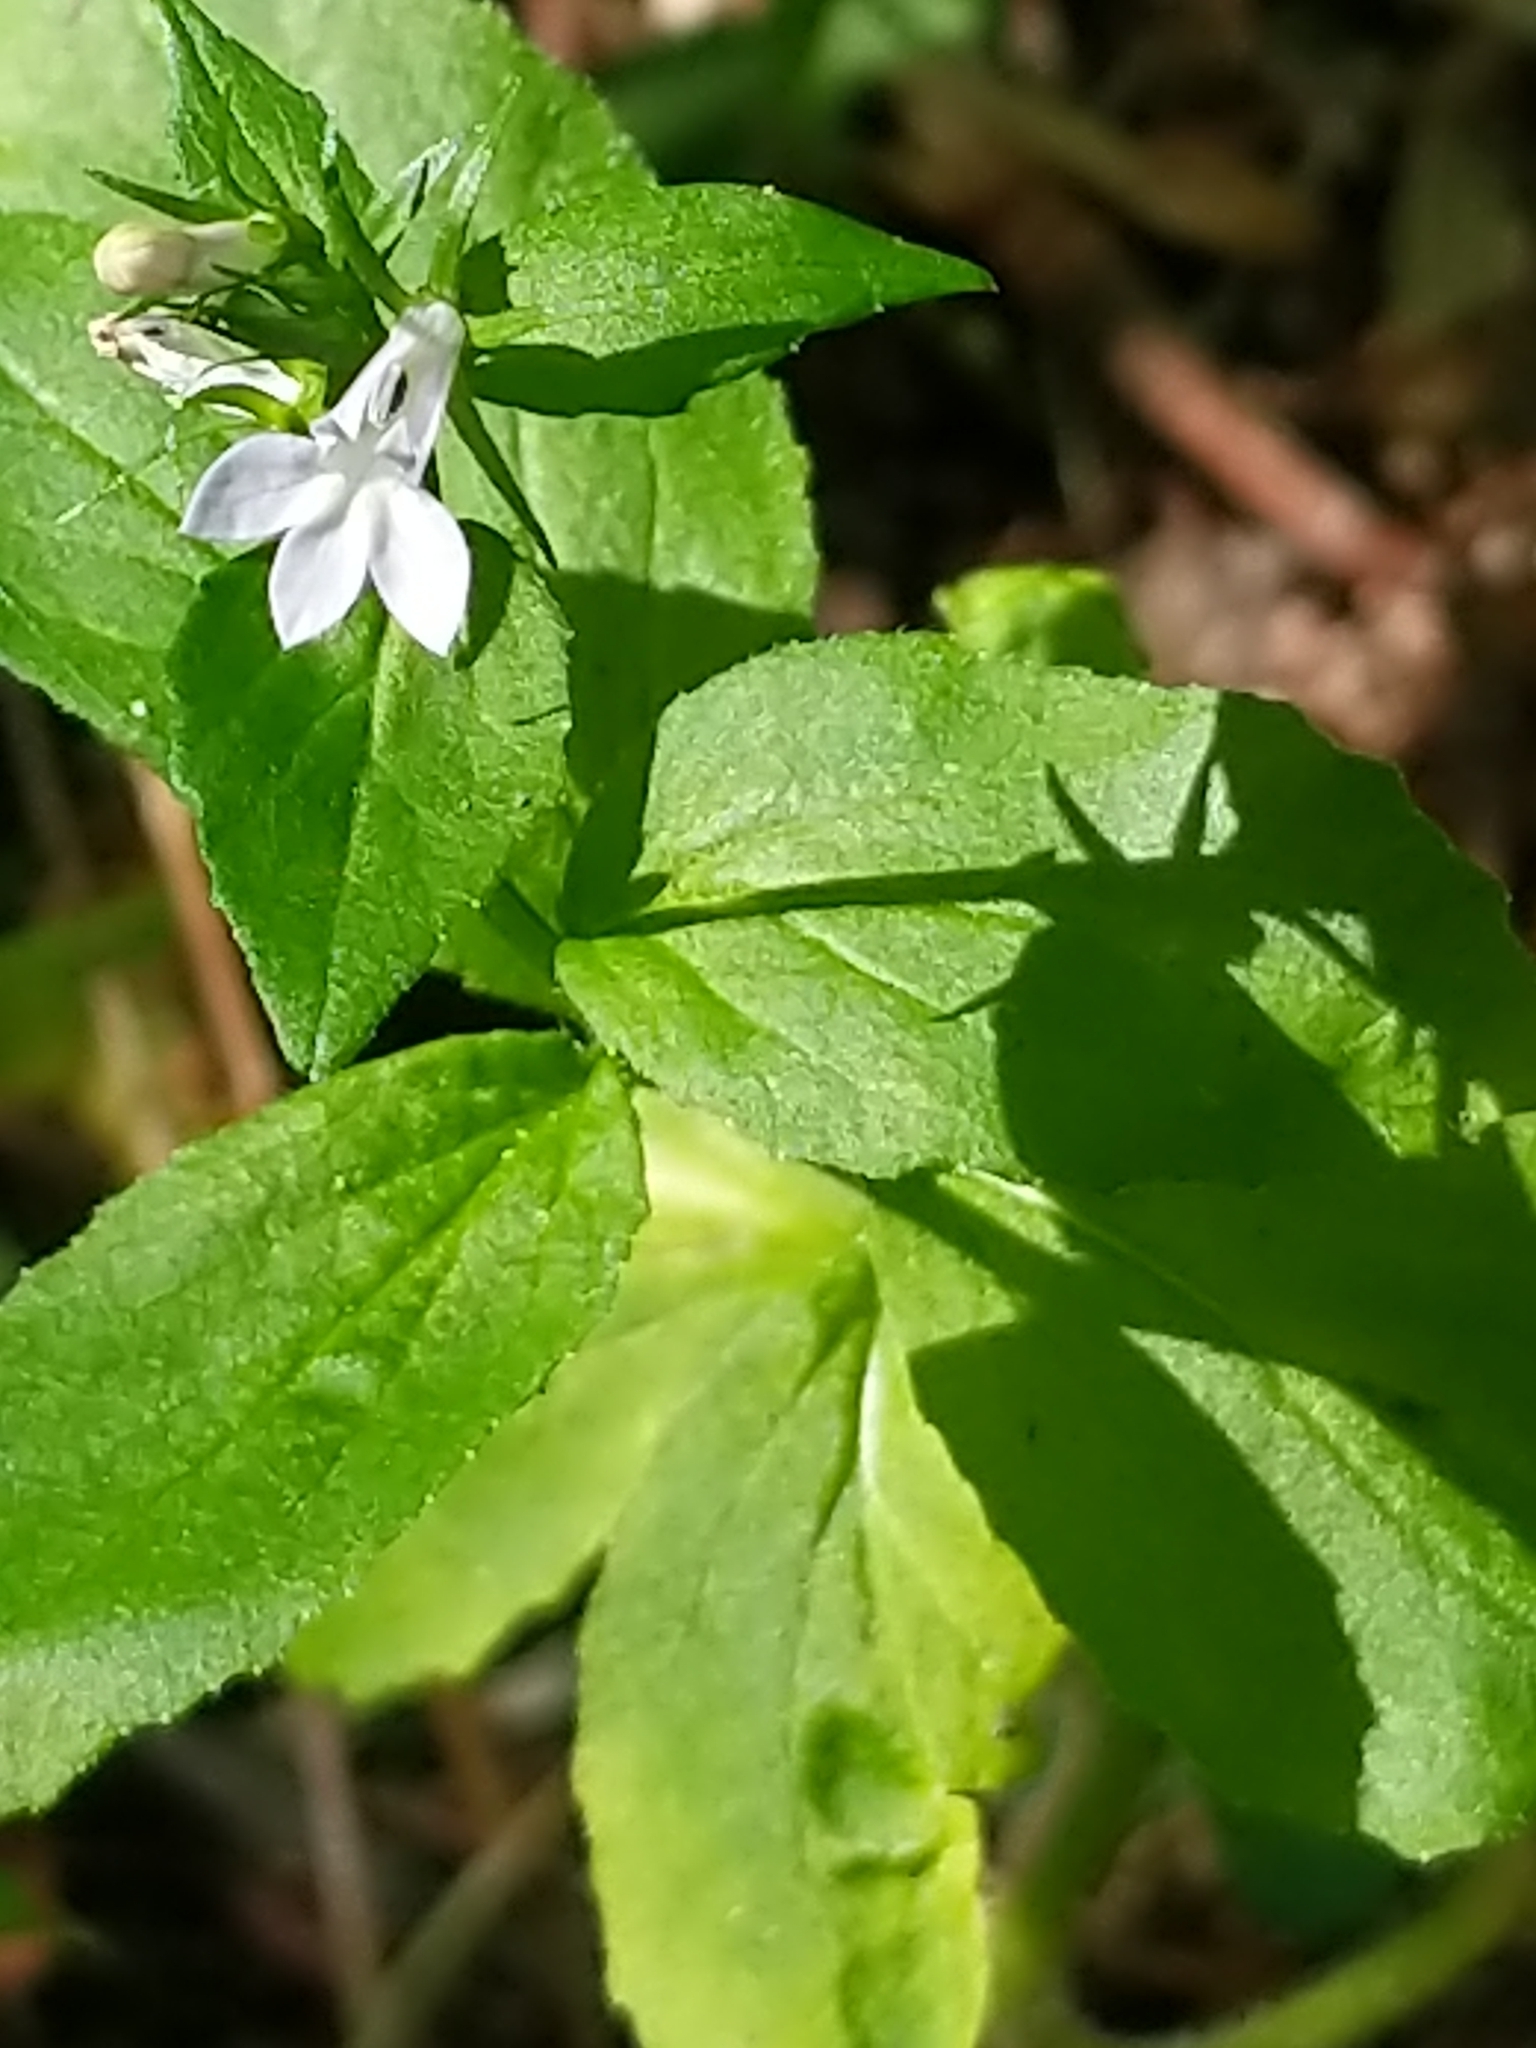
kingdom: Plantae
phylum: Tracheophyta
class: Magnoliopsida
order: Asterales
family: Campanulaceae
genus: Lobelia
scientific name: Lobelia inflata
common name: Indian tobacco
